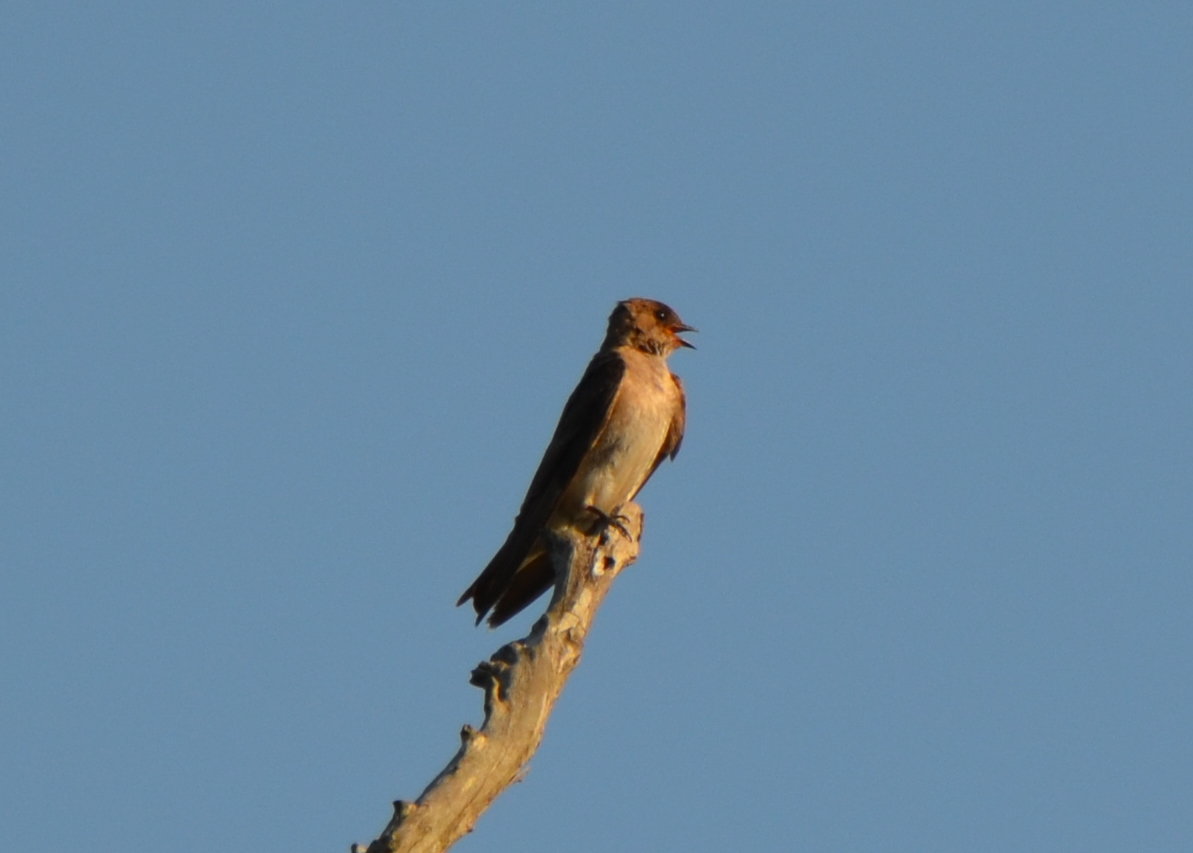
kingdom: Animalia
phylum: Chordata
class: Aves
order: Passeriformes
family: Hirundinidae
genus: Stelgidopteryx
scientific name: Stelgidopteryx serripennis
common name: Northern rough-winged swallow
